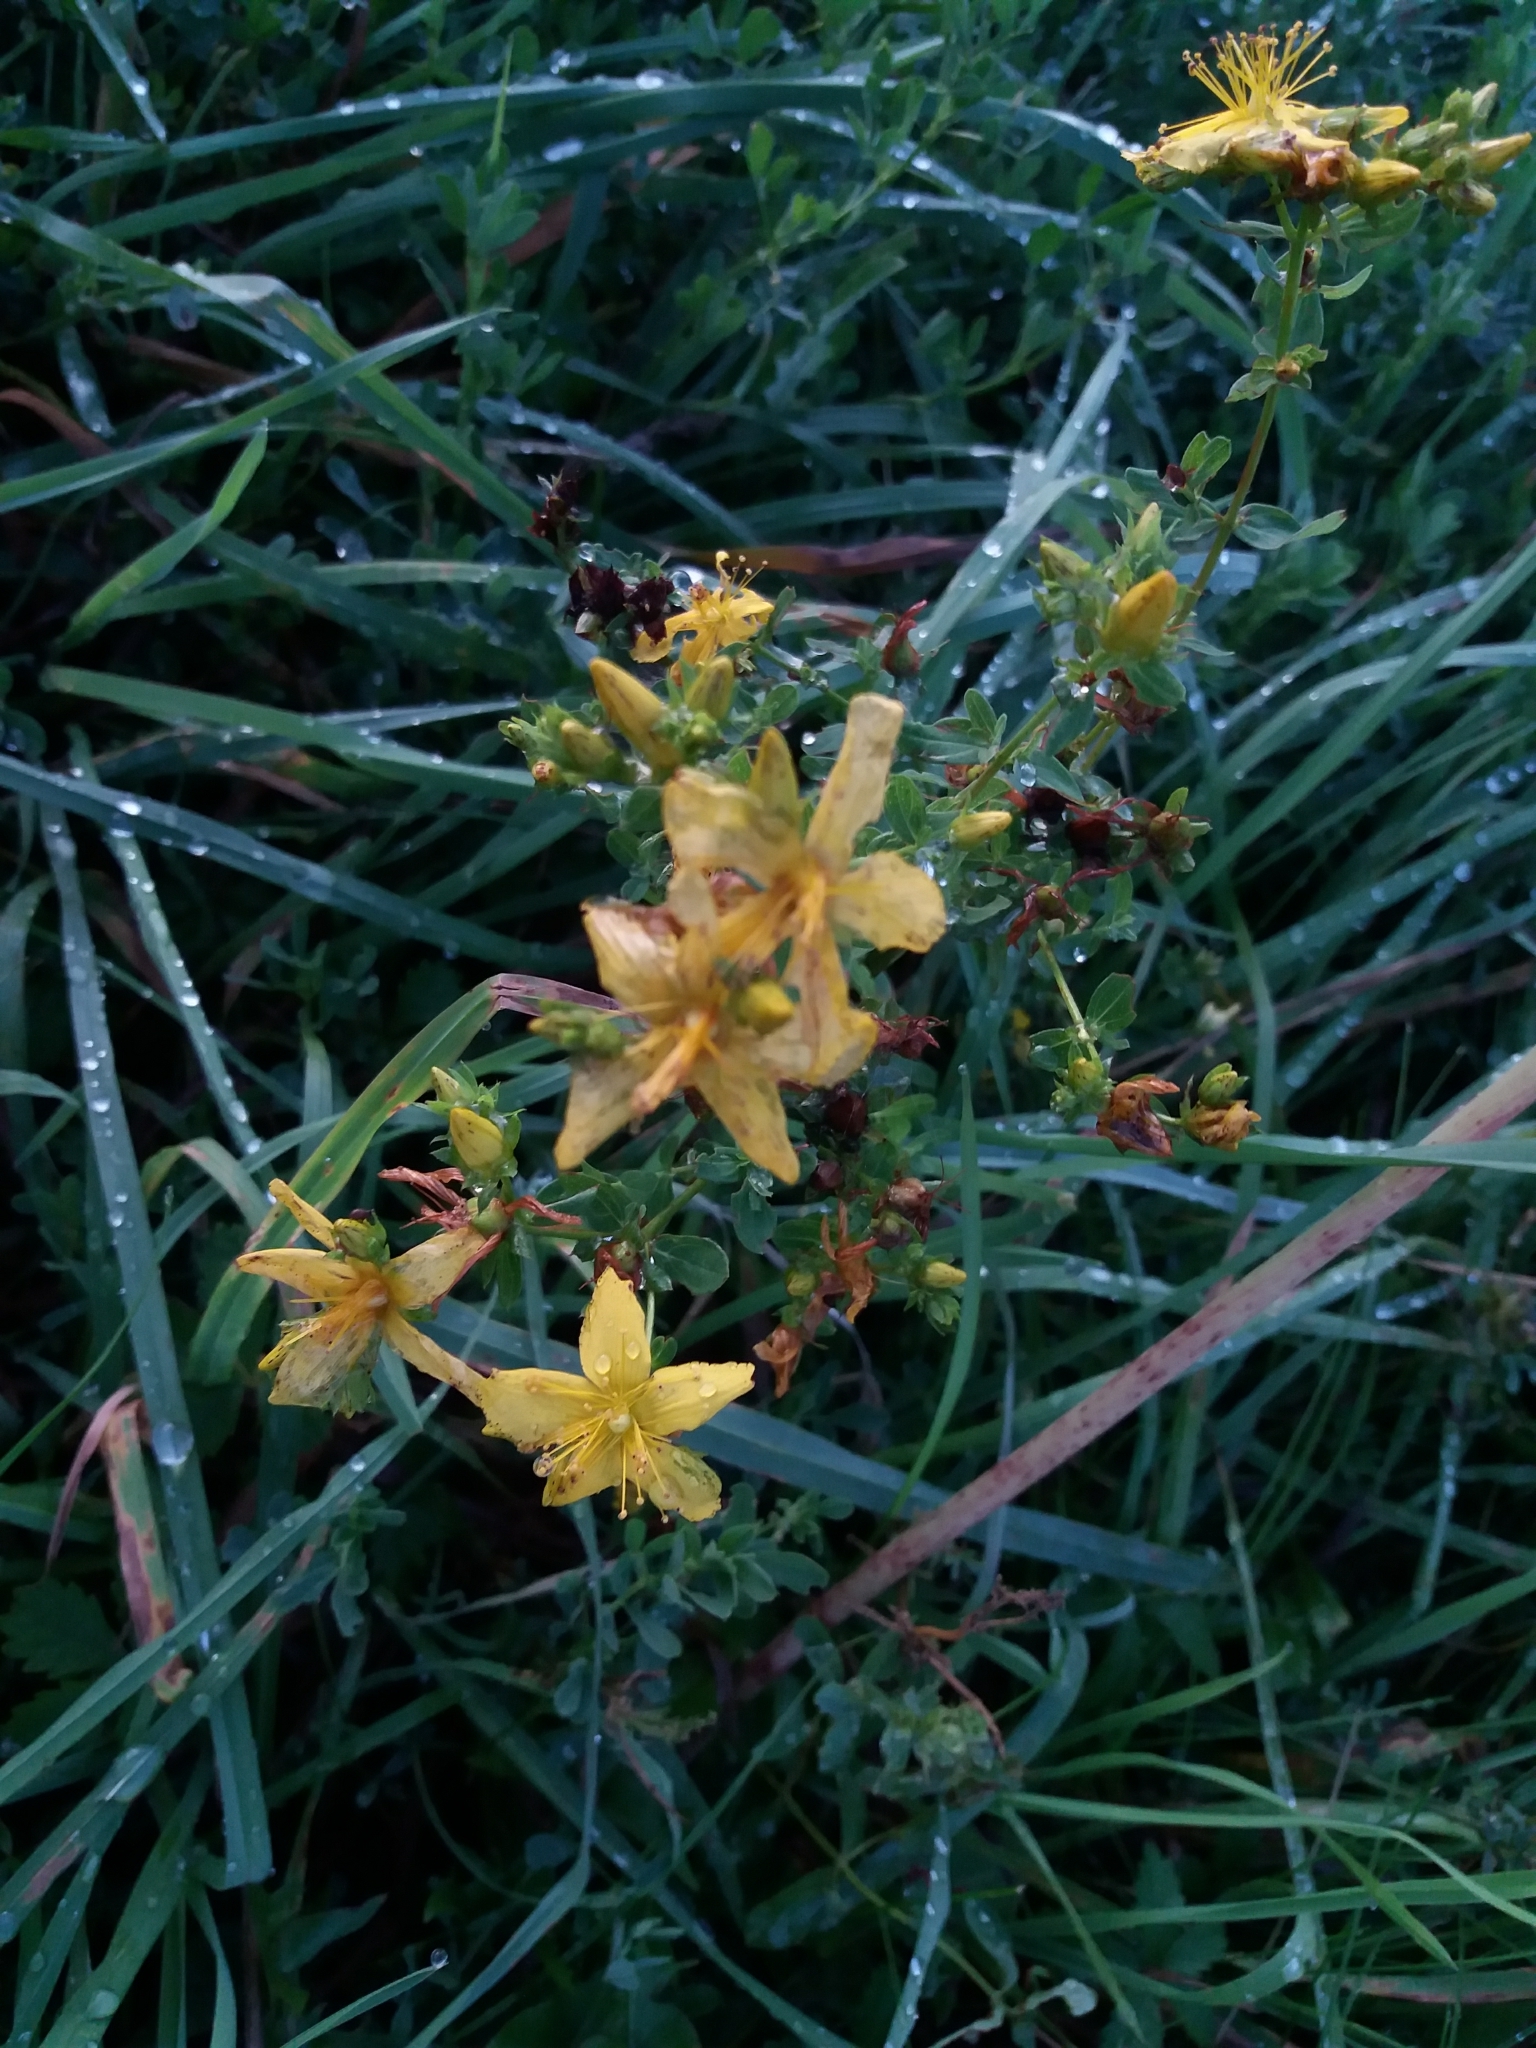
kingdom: Plantae
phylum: Tracheophyta
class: Magnoliopsida
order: Malpighiales
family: Hypericaceae
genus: Hypericum
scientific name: Hypericum perforatum
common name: Common st. johnswort
